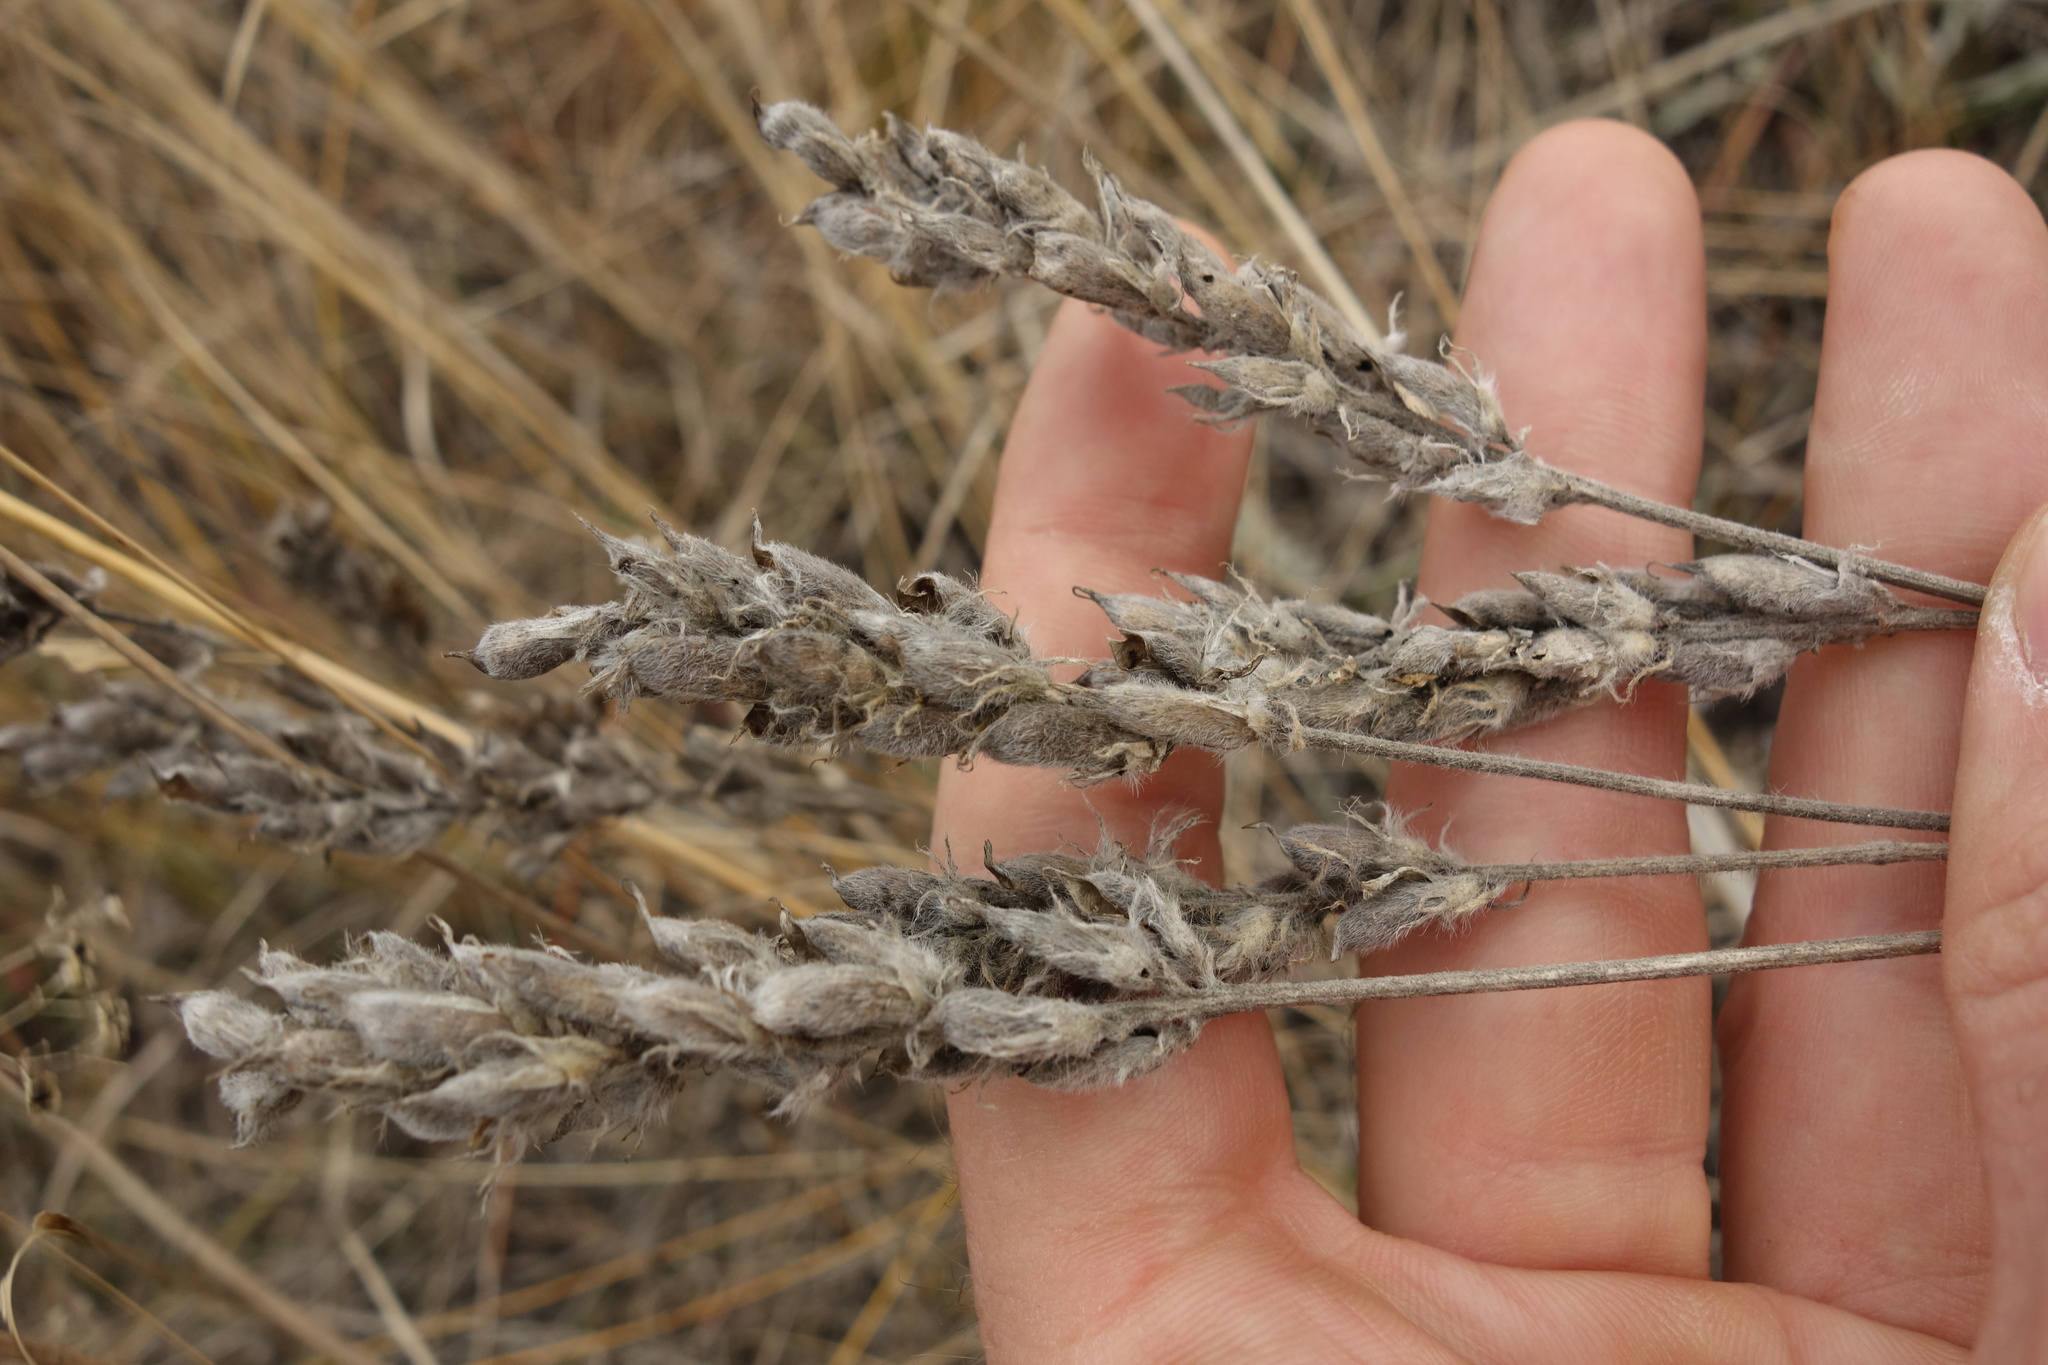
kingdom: Plantae
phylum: Tracheophyta
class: Magnoliopsida
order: Fabales
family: Fabaceae
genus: Oxytropis
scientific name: Oxytropis pilosa
